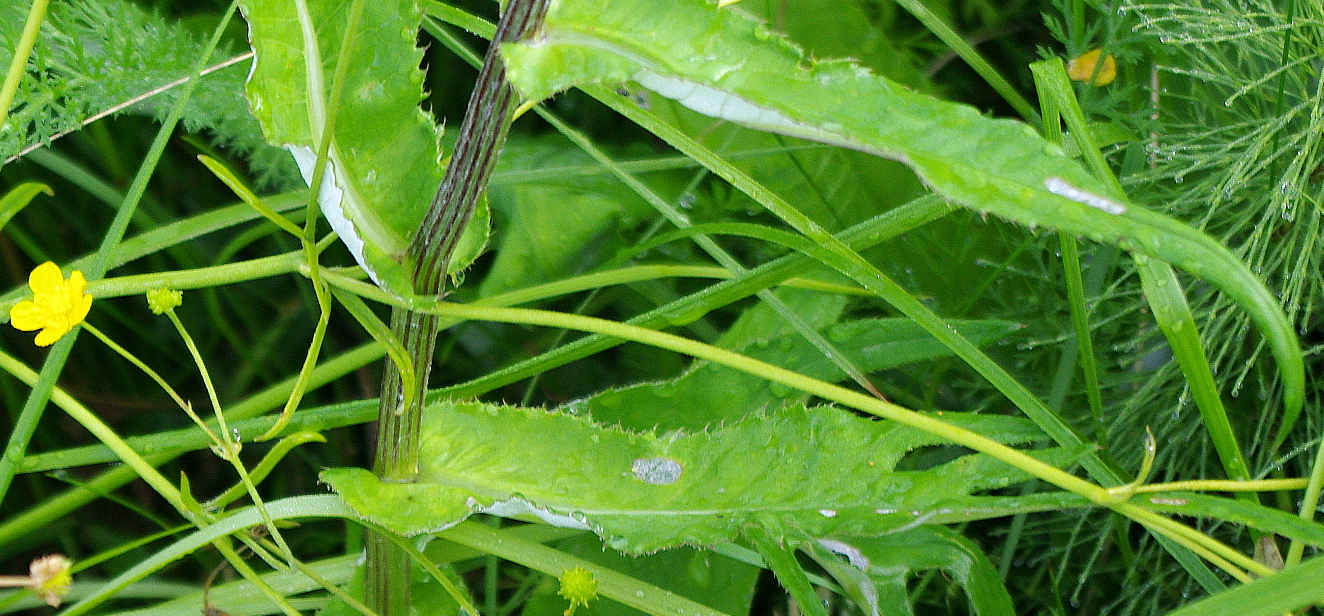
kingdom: Plantae
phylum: Tracheophyta
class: Magnoliopsida
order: Asterales
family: Asteraceae
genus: Cirsium
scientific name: Cirsium heterophyllum
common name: Melancholy thistle
